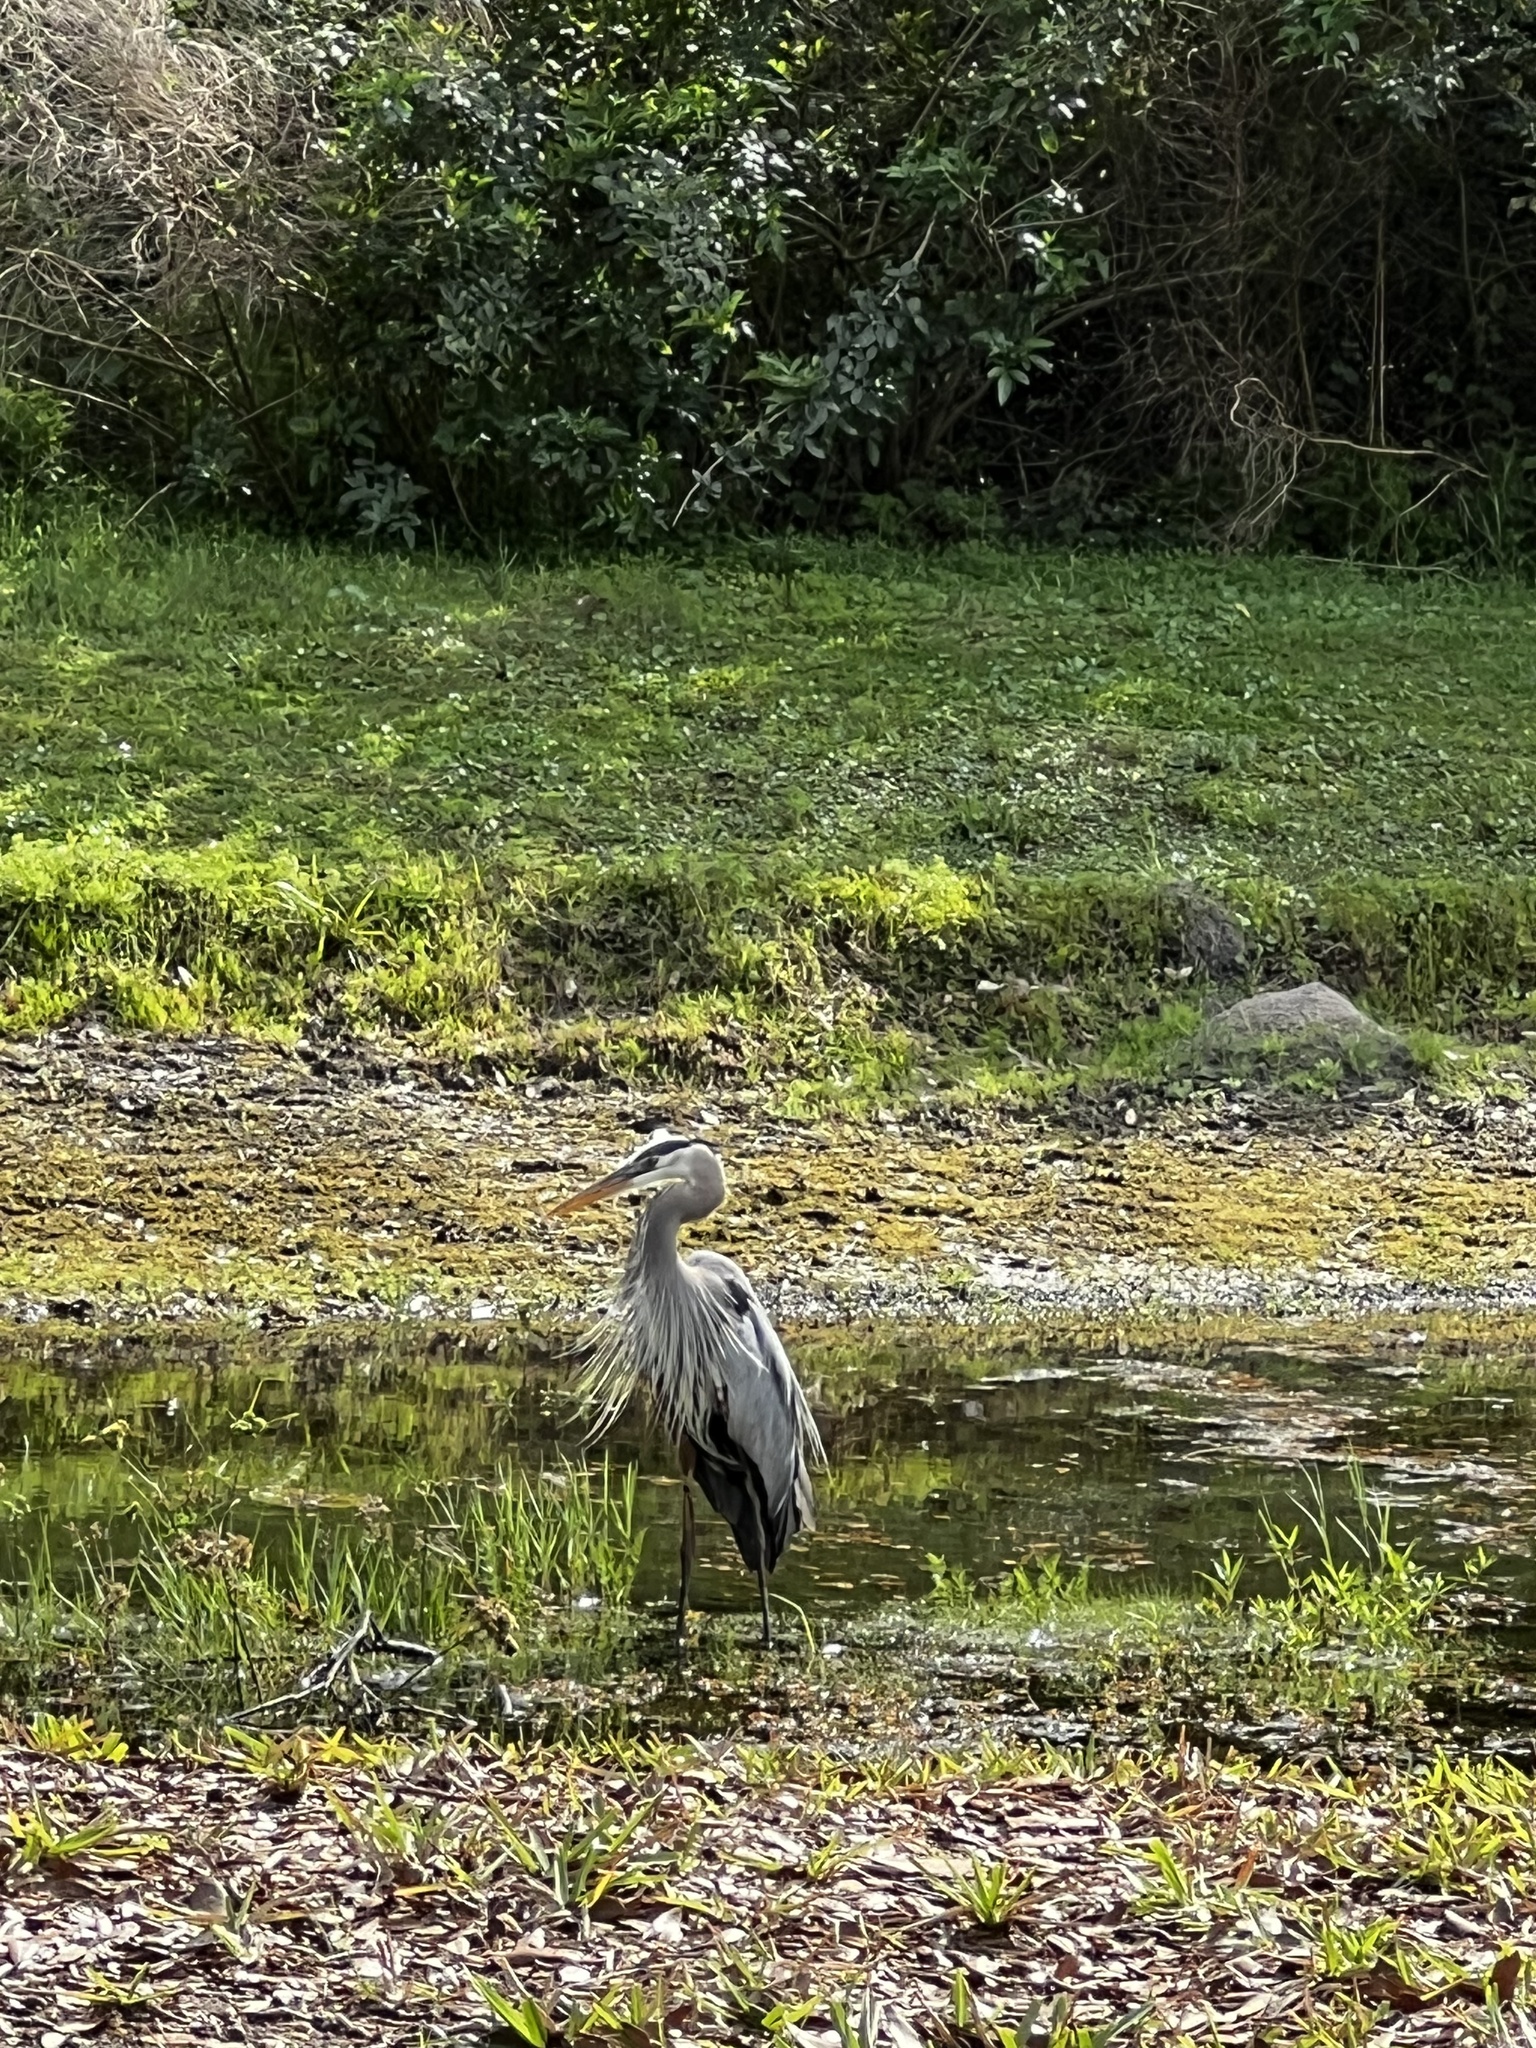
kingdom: Animalia
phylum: Chordata
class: Aves
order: Pelecaniformes
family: Ardeidae
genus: Ardea
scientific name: Ardea herodias
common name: Great blue heron
